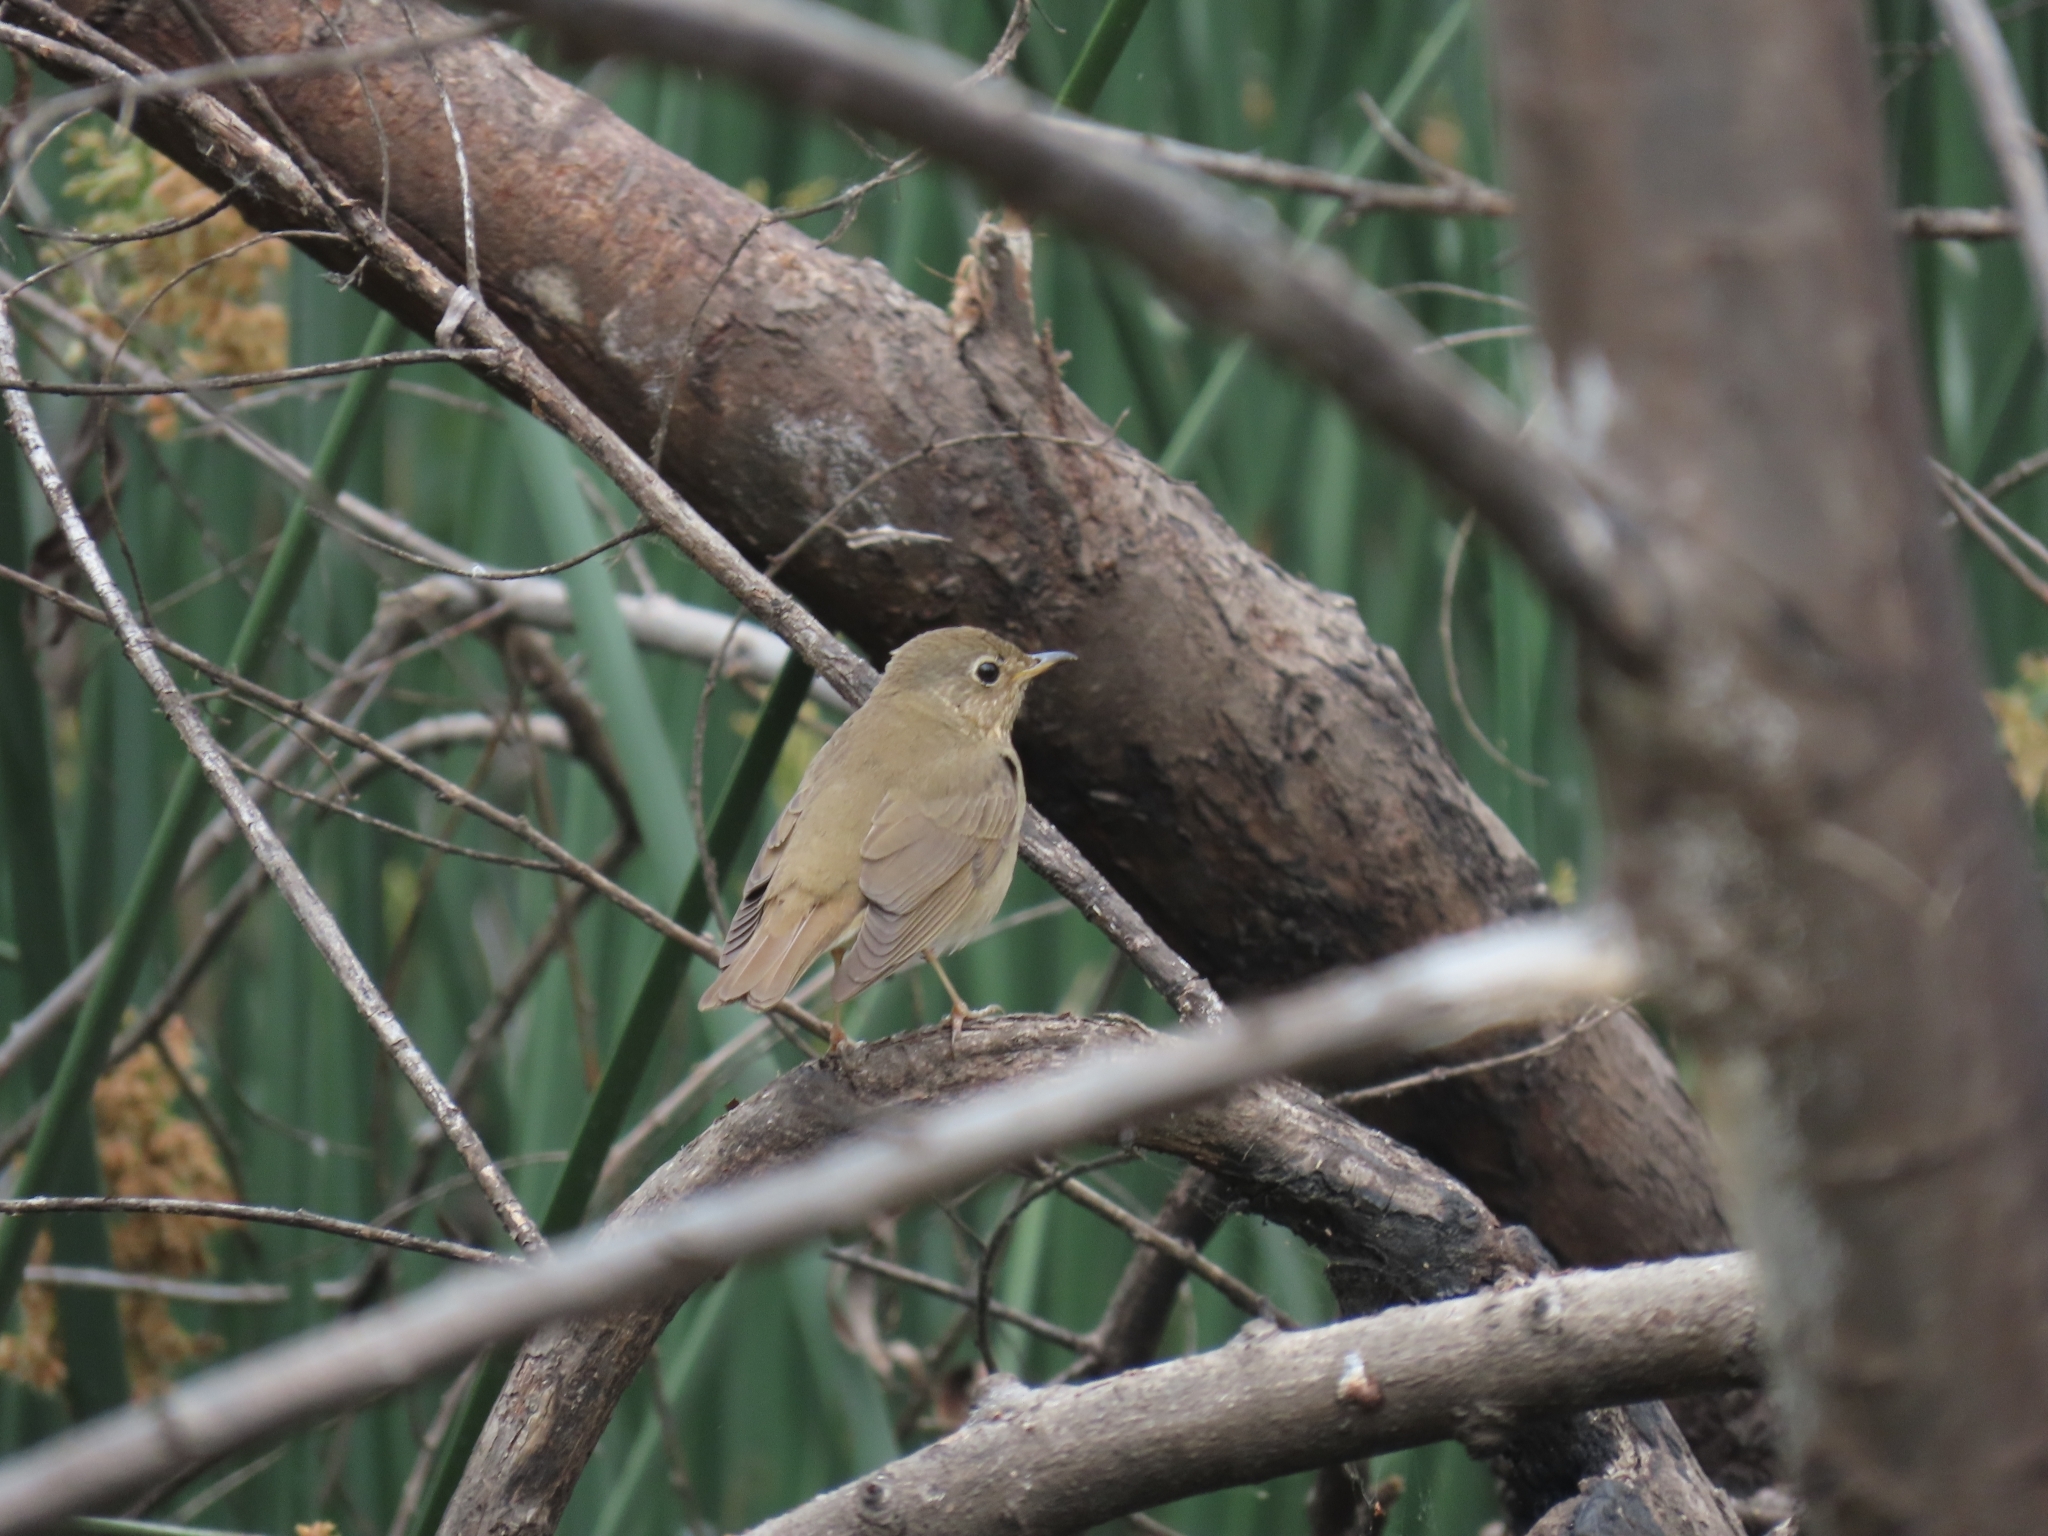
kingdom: Animalia
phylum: Chordata
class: Aves
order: Passeriformes
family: Turdidae
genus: Catharus
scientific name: Catharus ustulatus
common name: Swainson's thrush
